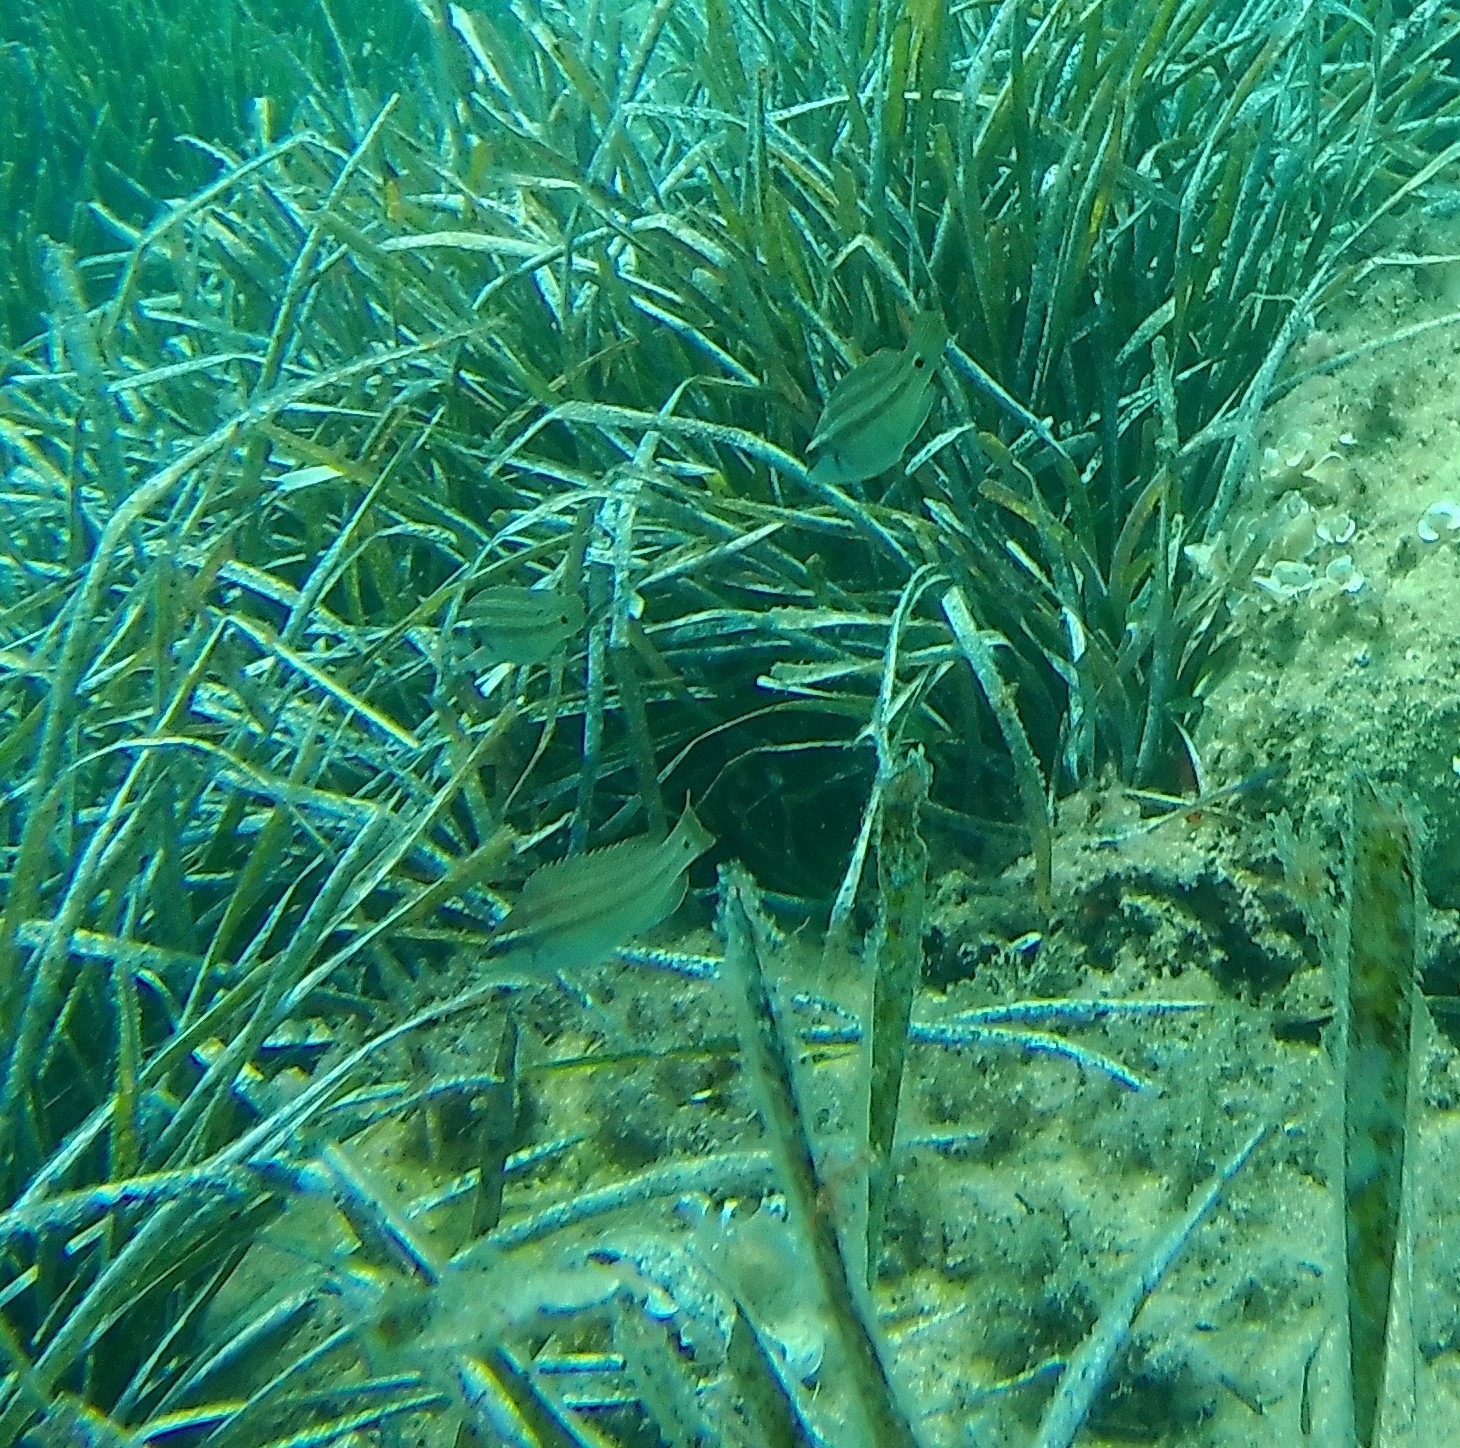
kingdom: Animalia
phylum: Chordata
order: Perciformes
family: Labridae
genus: Symphodus
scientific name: Symphodus tinca
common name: Peacock wrasse
